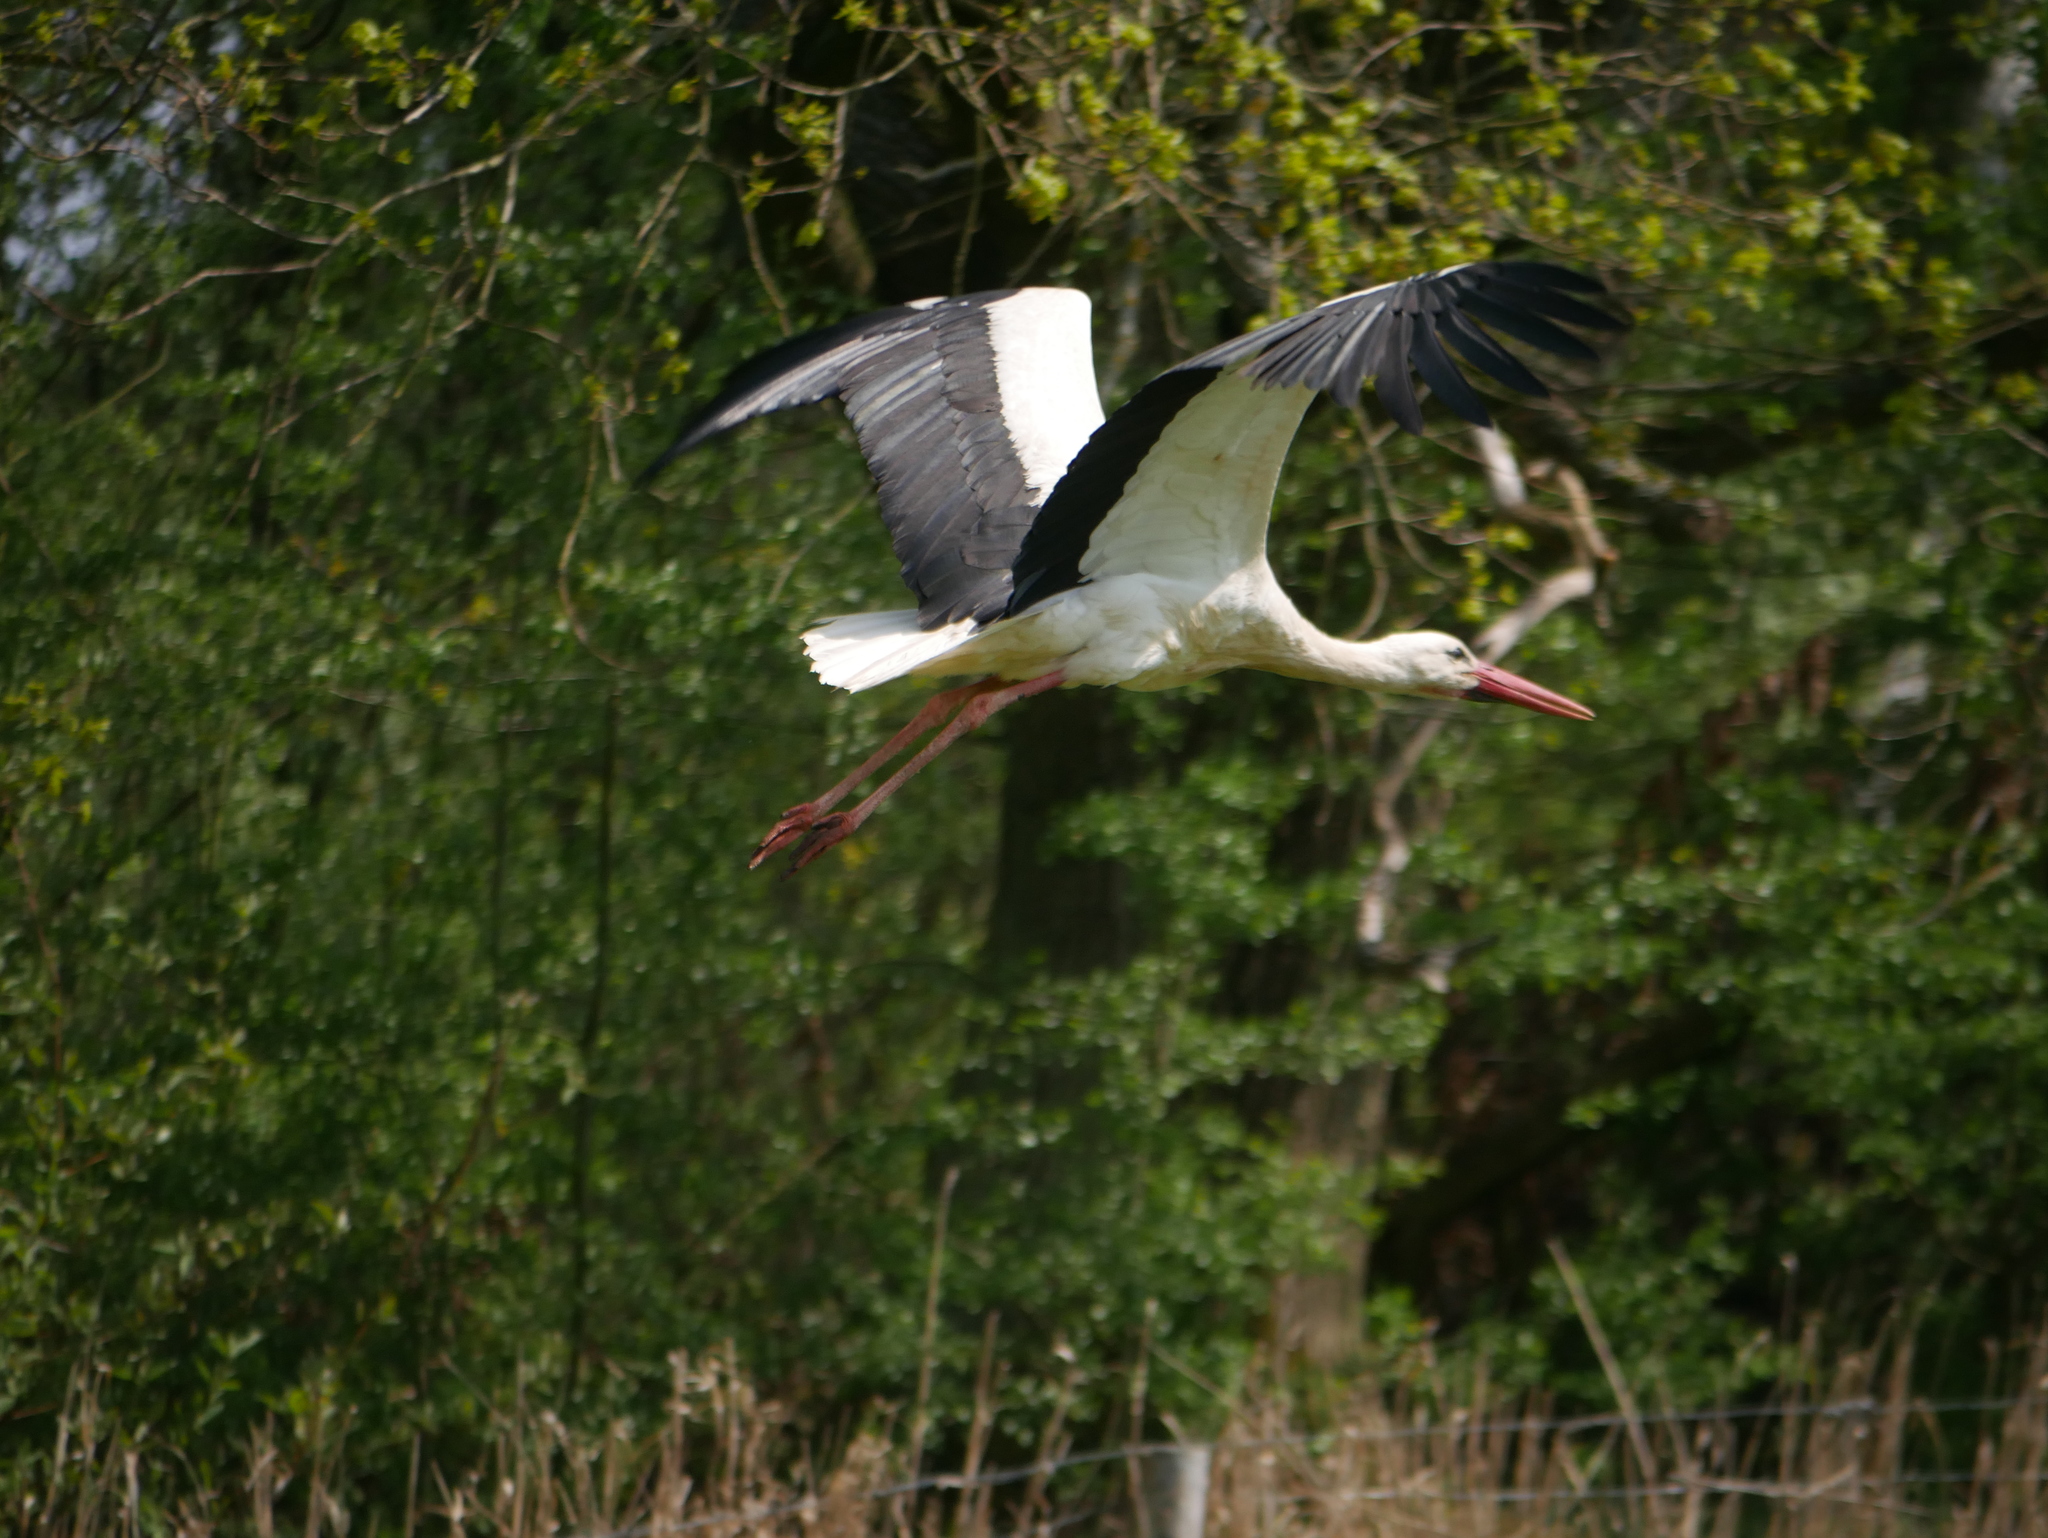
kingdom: Animalia
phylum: Chordata
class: Aves
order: Ciconiiformes
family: Ciconiidae
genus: Ciconia
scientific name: Ciconia ciconia
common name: White stork
